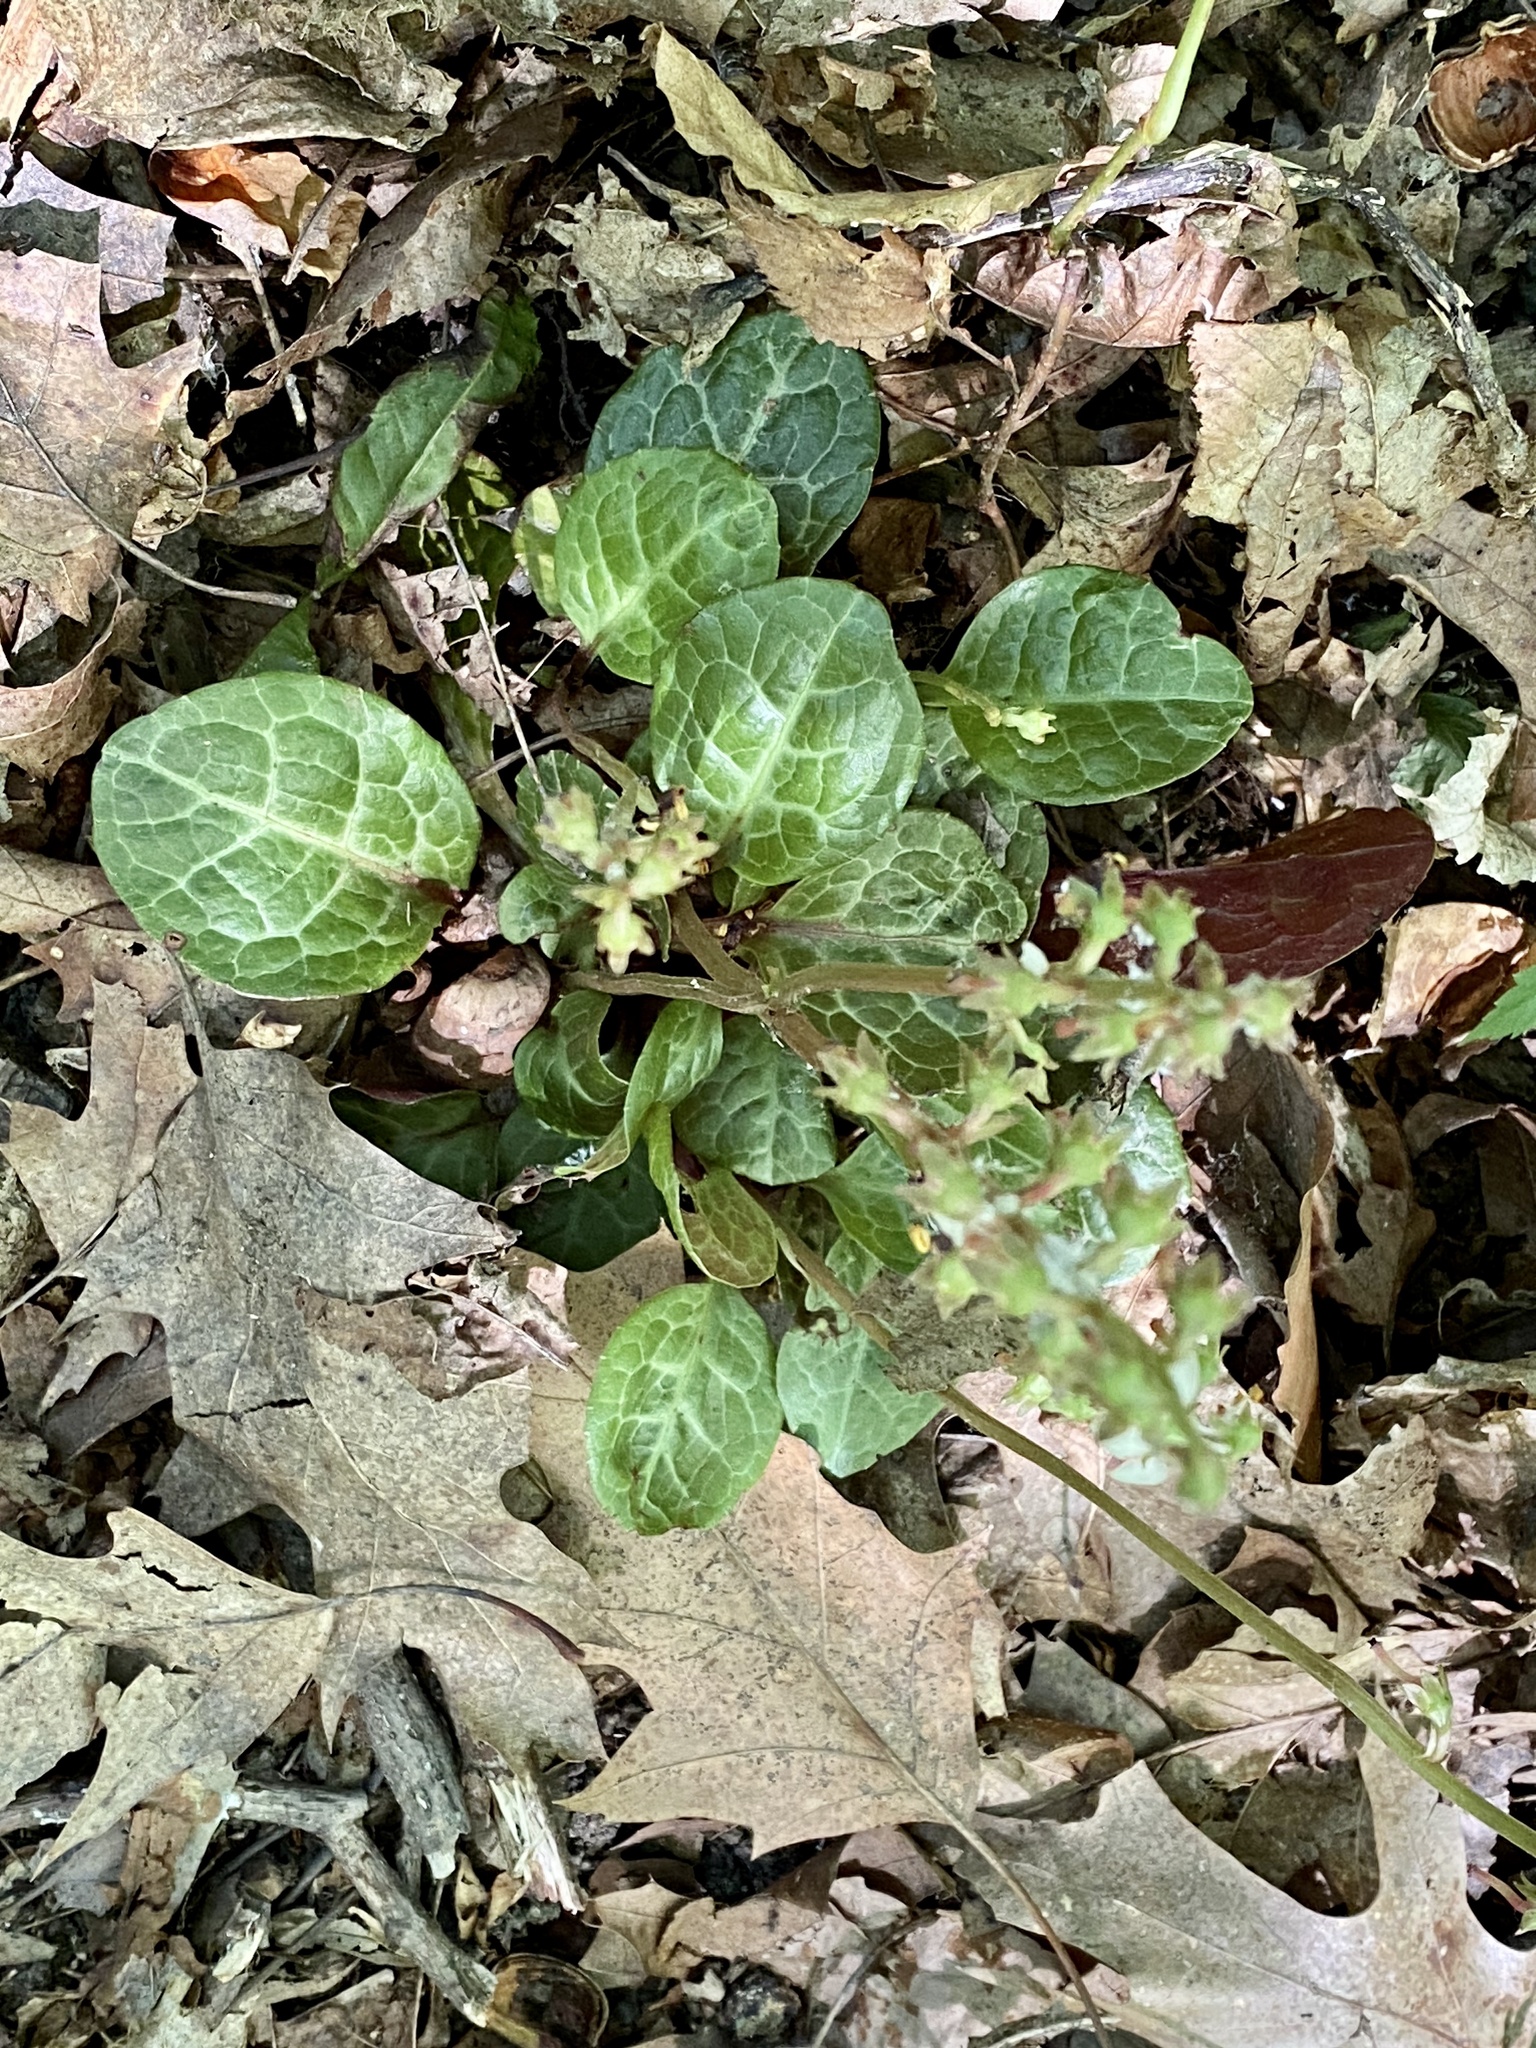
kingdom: Plantae
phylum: Tracheophyta
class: Magnoliopsida
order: Ericales
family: Ericaceae
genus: Pyrola
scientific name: Pyrola americana
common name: American wintergreen
